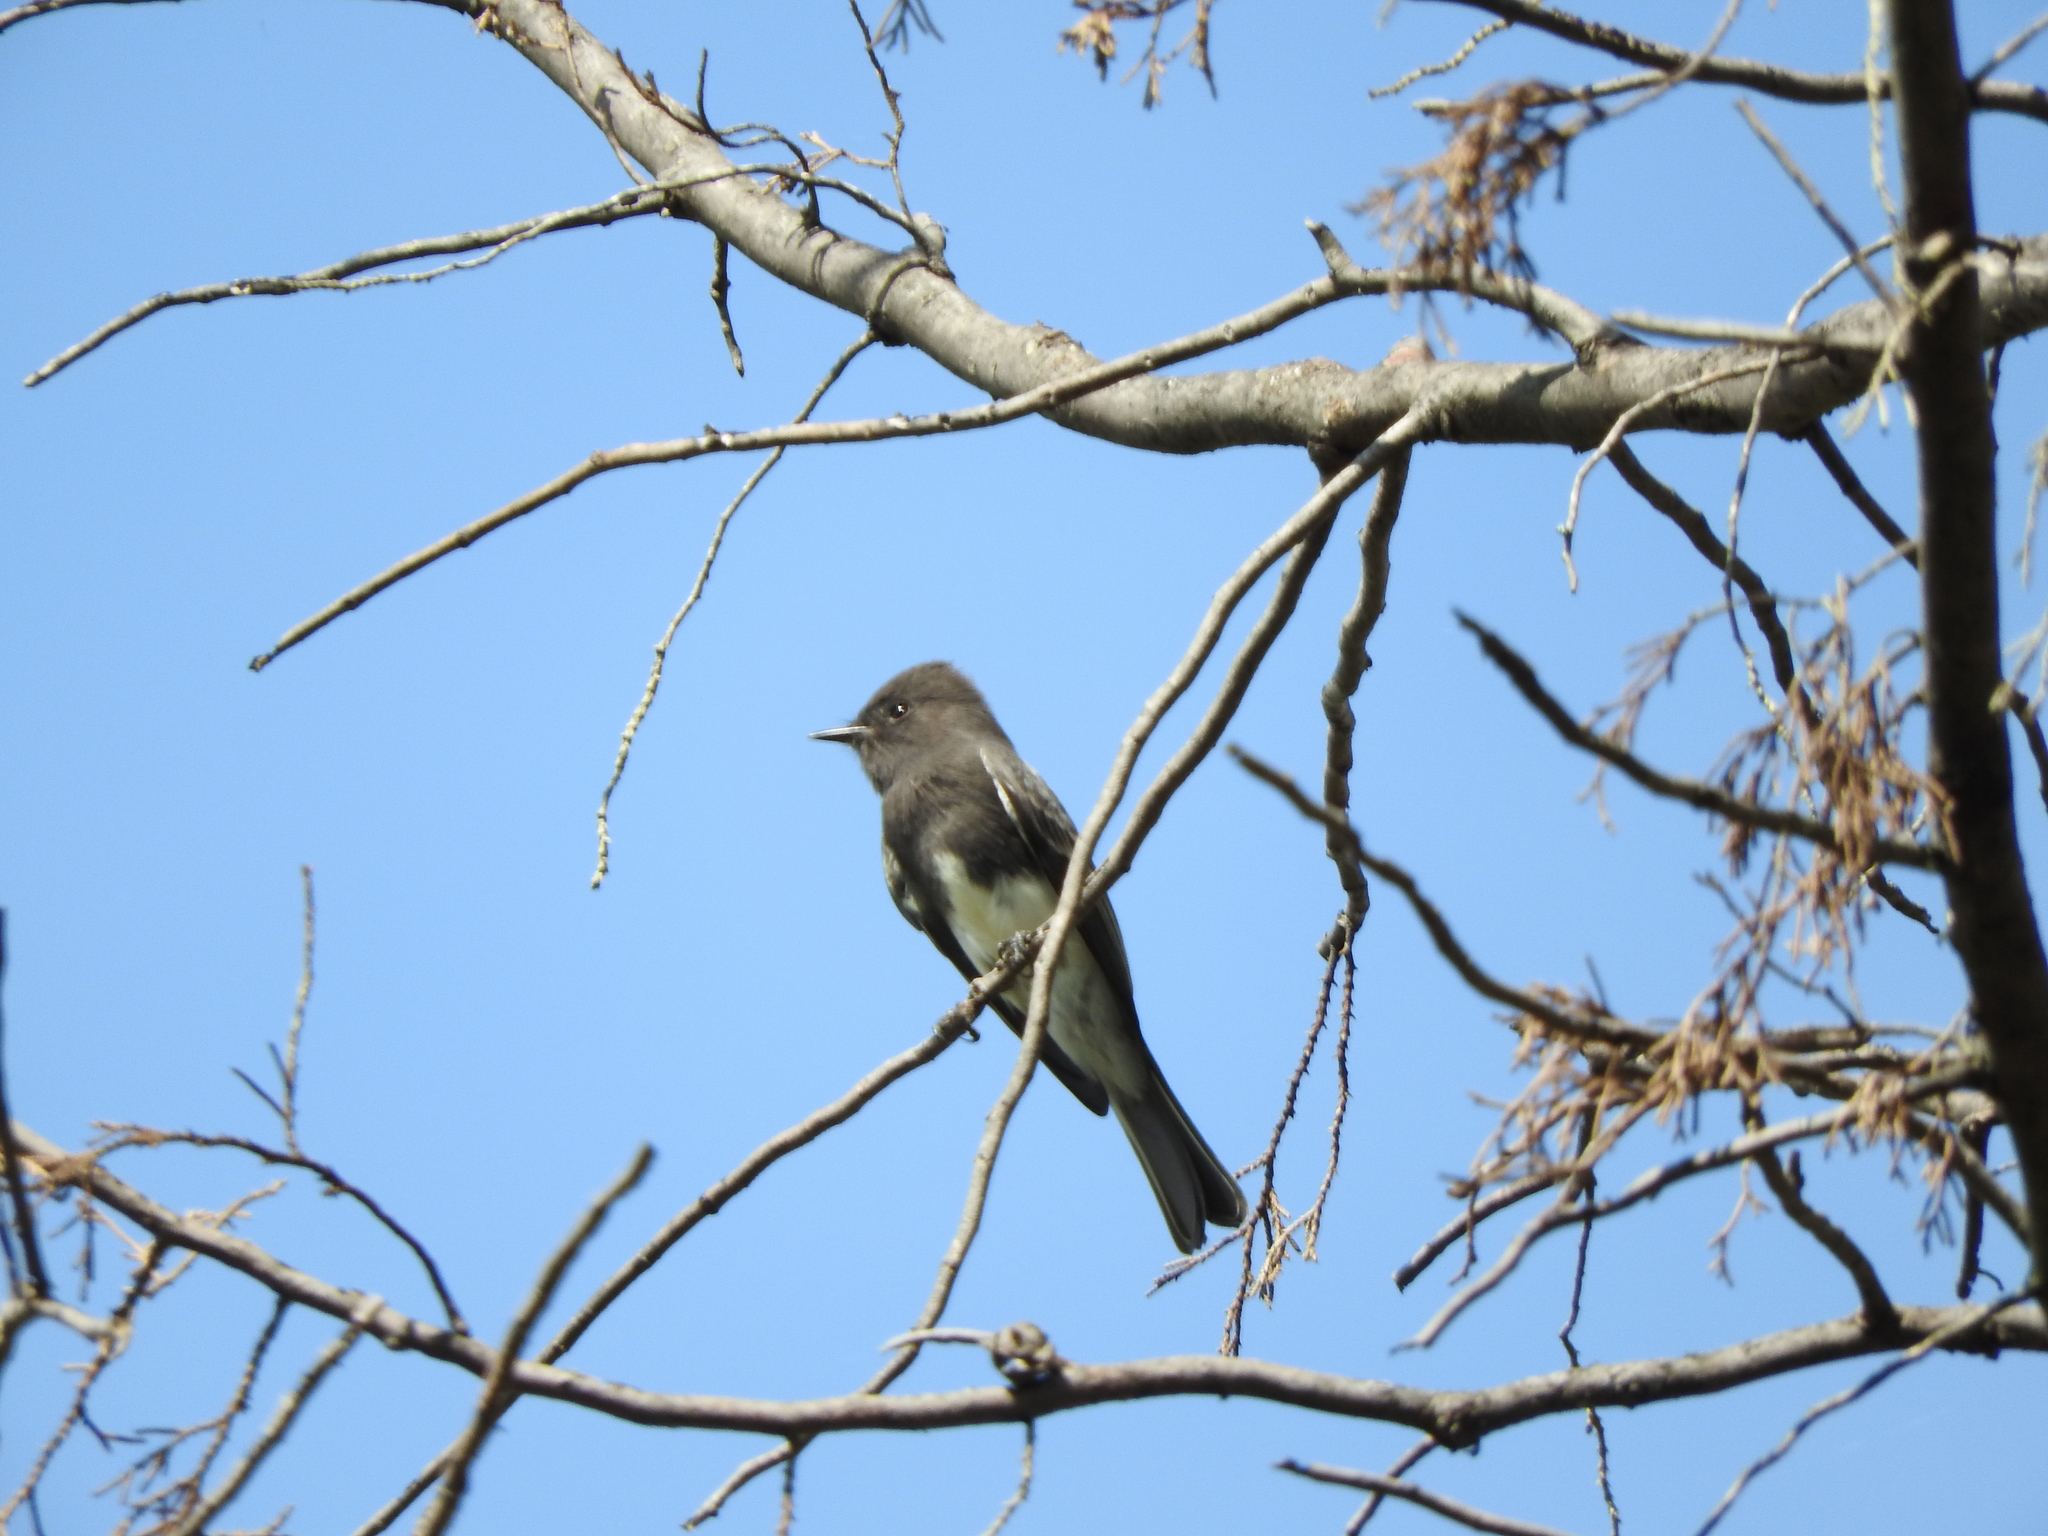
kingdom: Animalia
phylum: Chordata
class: Aves
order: Passeriformes
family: Tyrannidae
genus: Sayornis
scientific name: Sayornis nigricans
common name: Black phoebe
